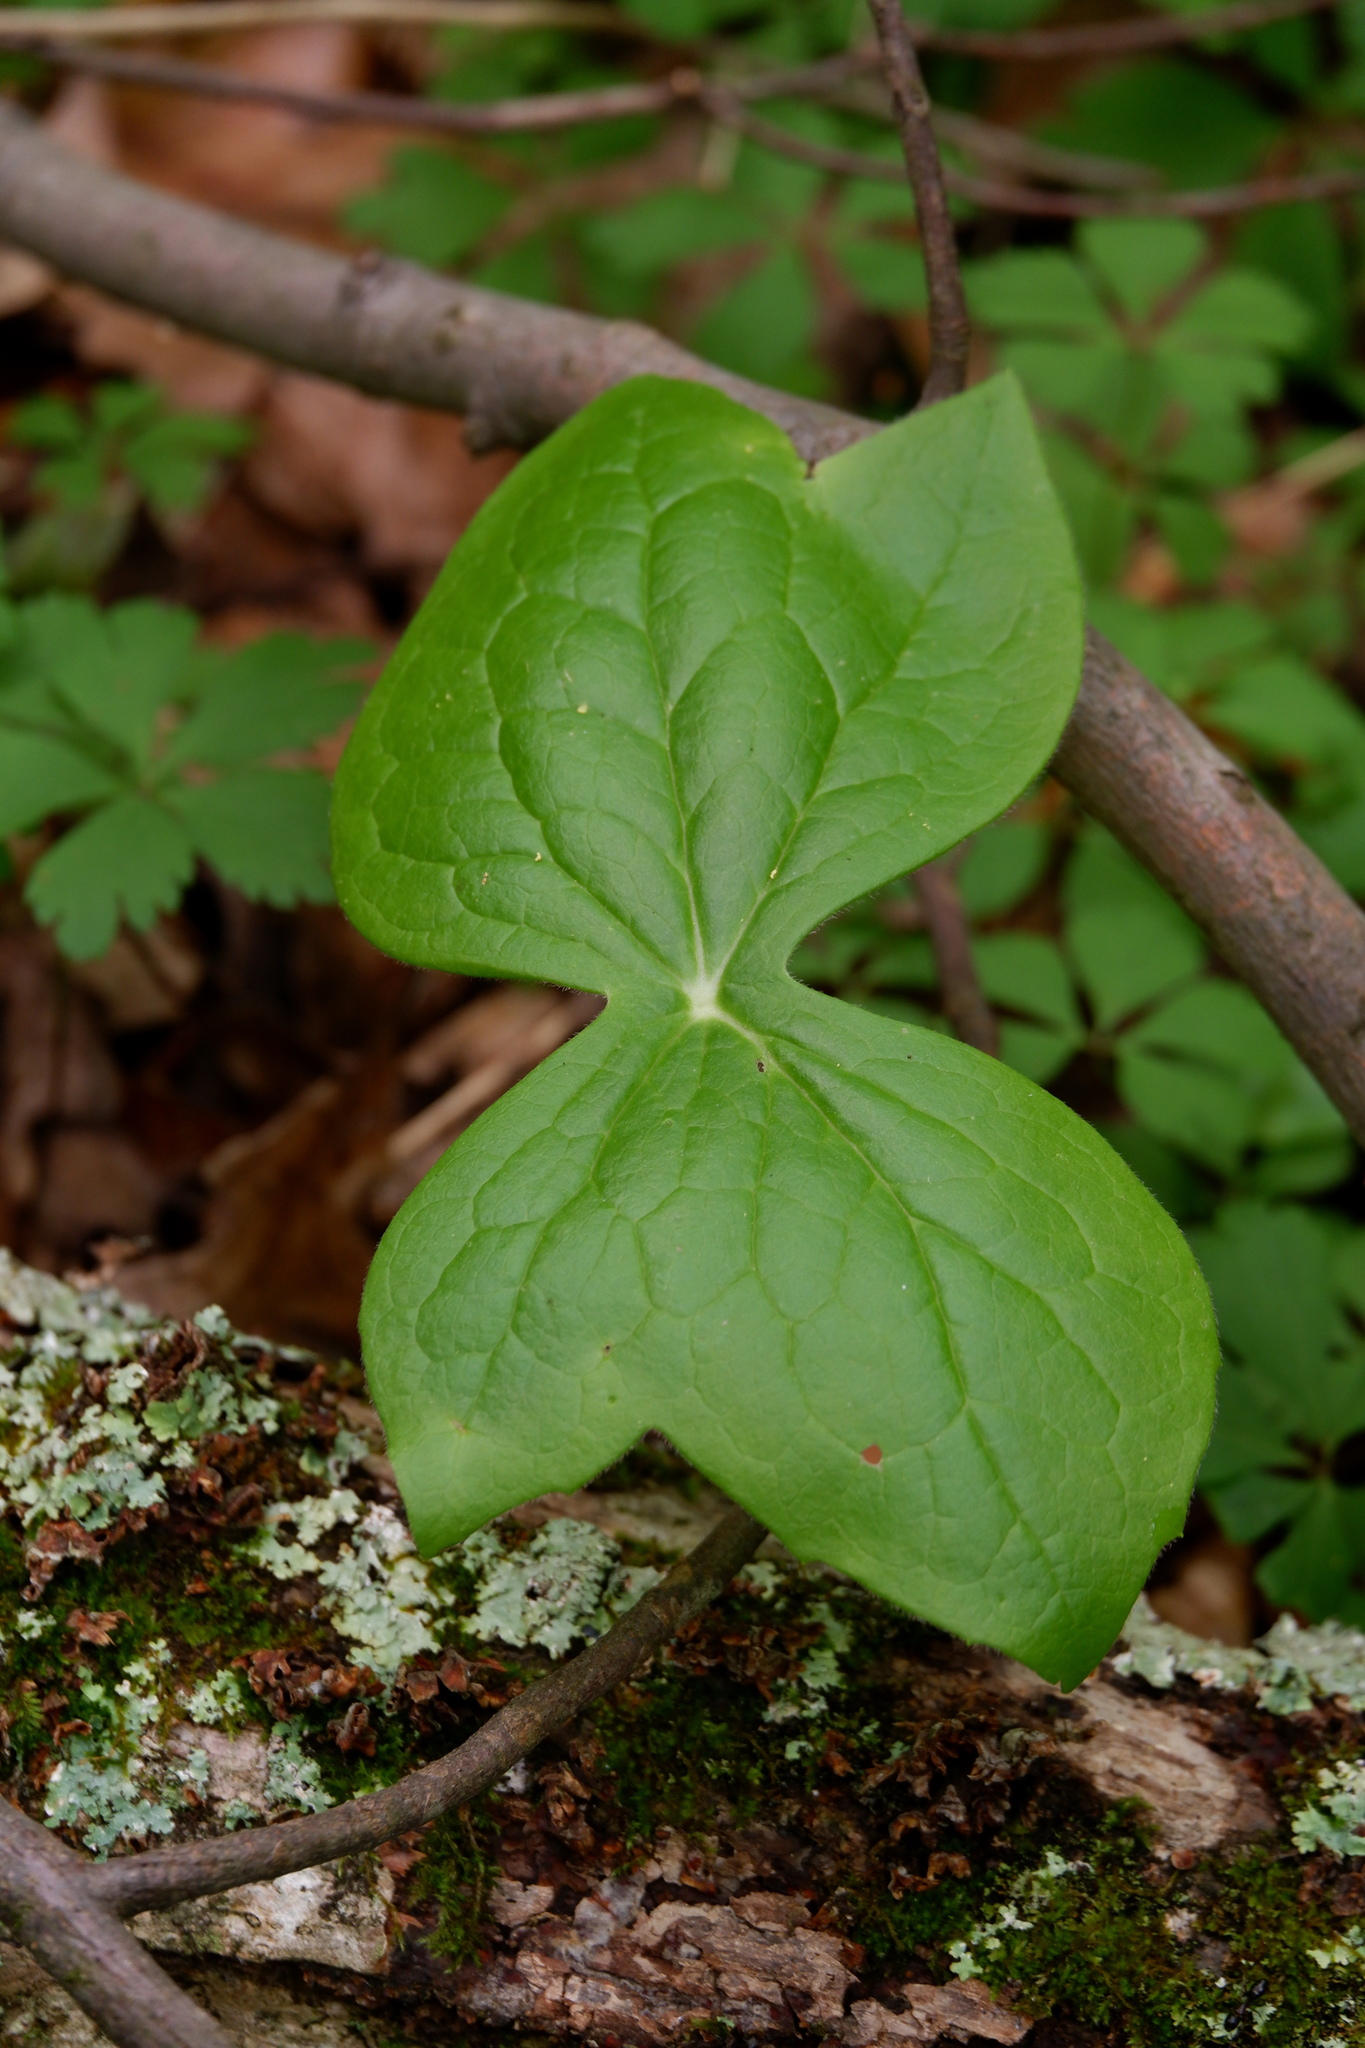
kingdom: Plantae
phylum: Tracheophyta
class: Magnoliopsida
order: Ranunculales
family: Berberidaceae
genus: Podophyllum
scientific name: Podophyllum peltatum
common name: Wild mandrake
